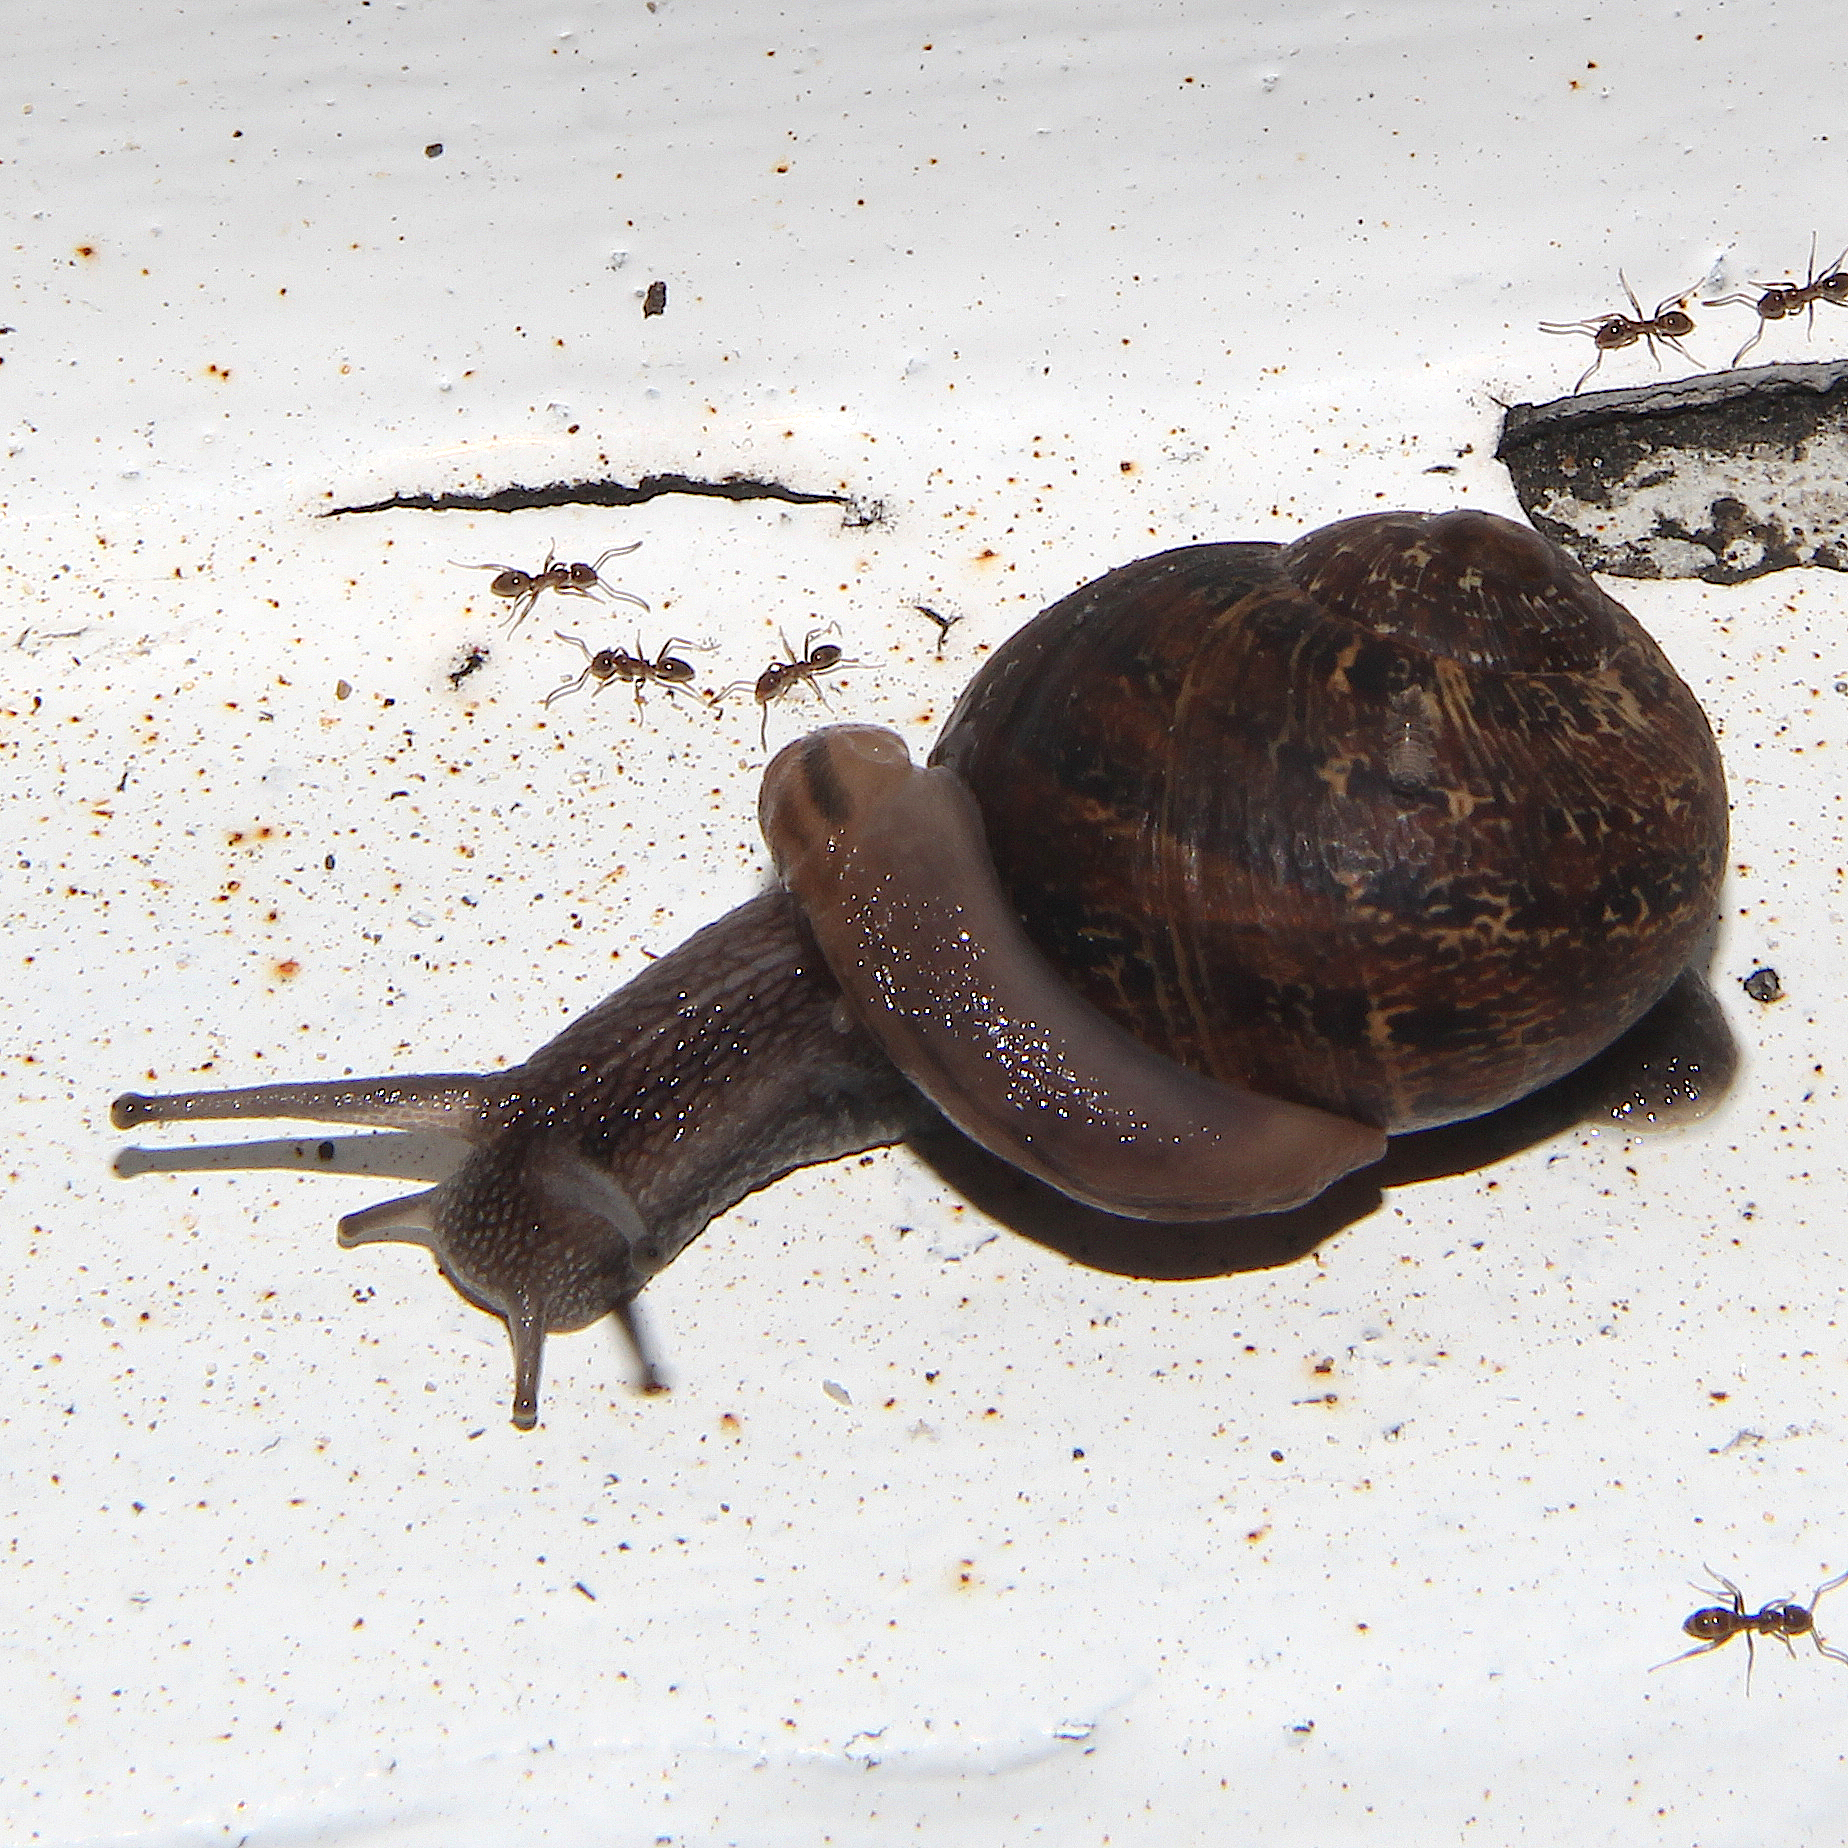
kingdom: Animalia
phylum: Arthropoda
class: Insecta
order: Hymenoptera
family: Formicidae
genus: Linepithema
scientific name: Linepithema humile
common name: Argentine ant
